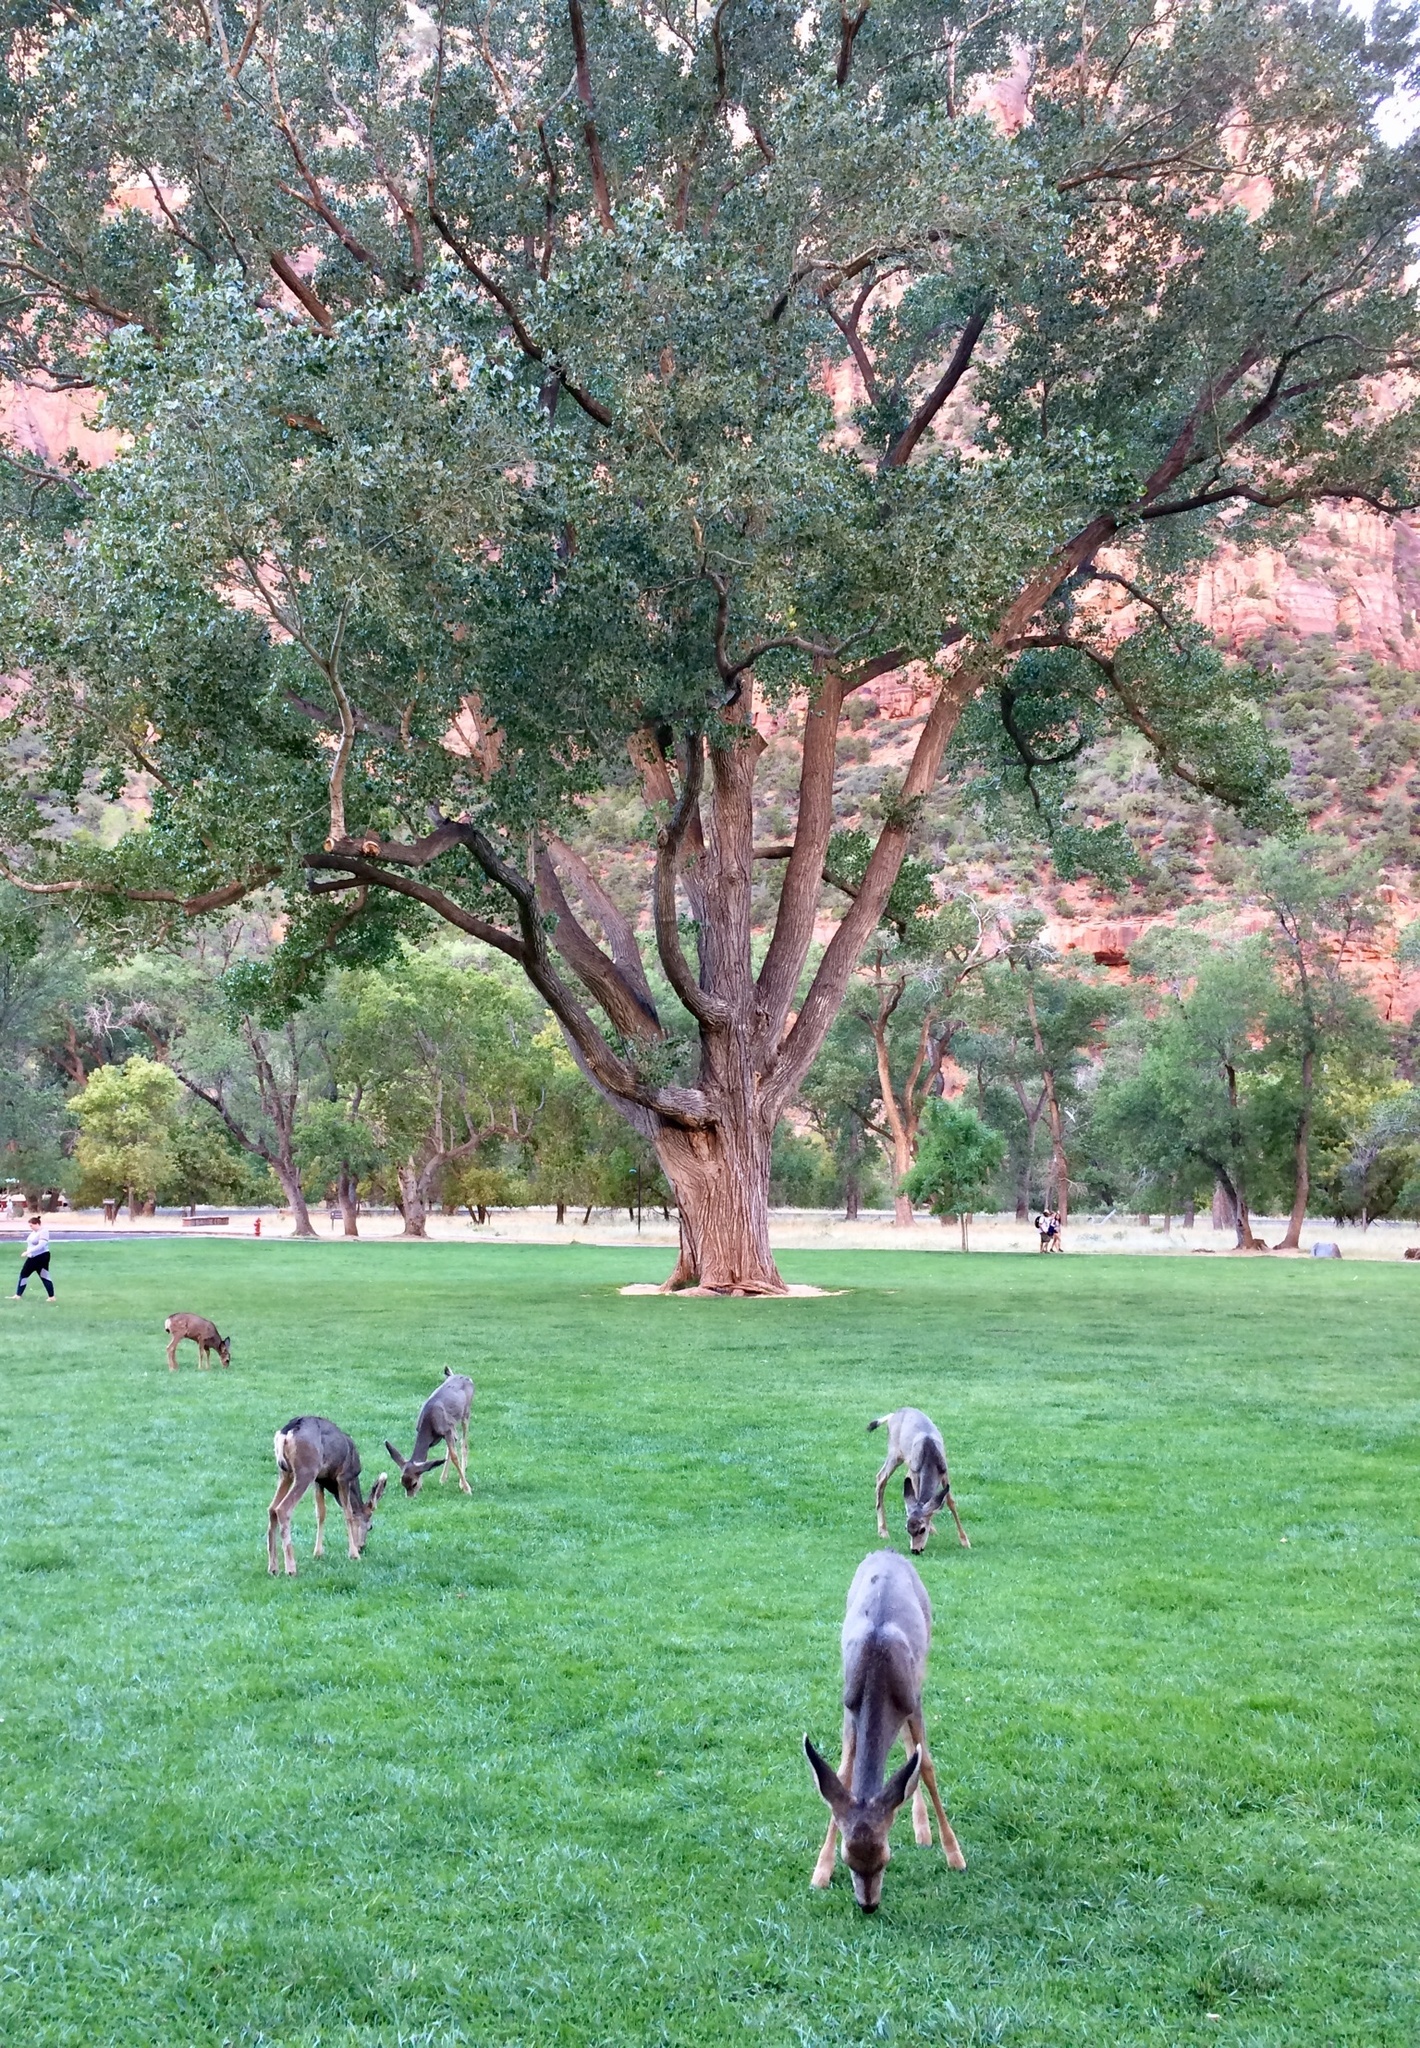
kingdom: Animalia
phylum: Chordata
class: Mammalia
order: Artiodactyla
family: Cervidae
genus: Odocoileus
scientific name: Odocoileus hemionus
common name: Mule deer
